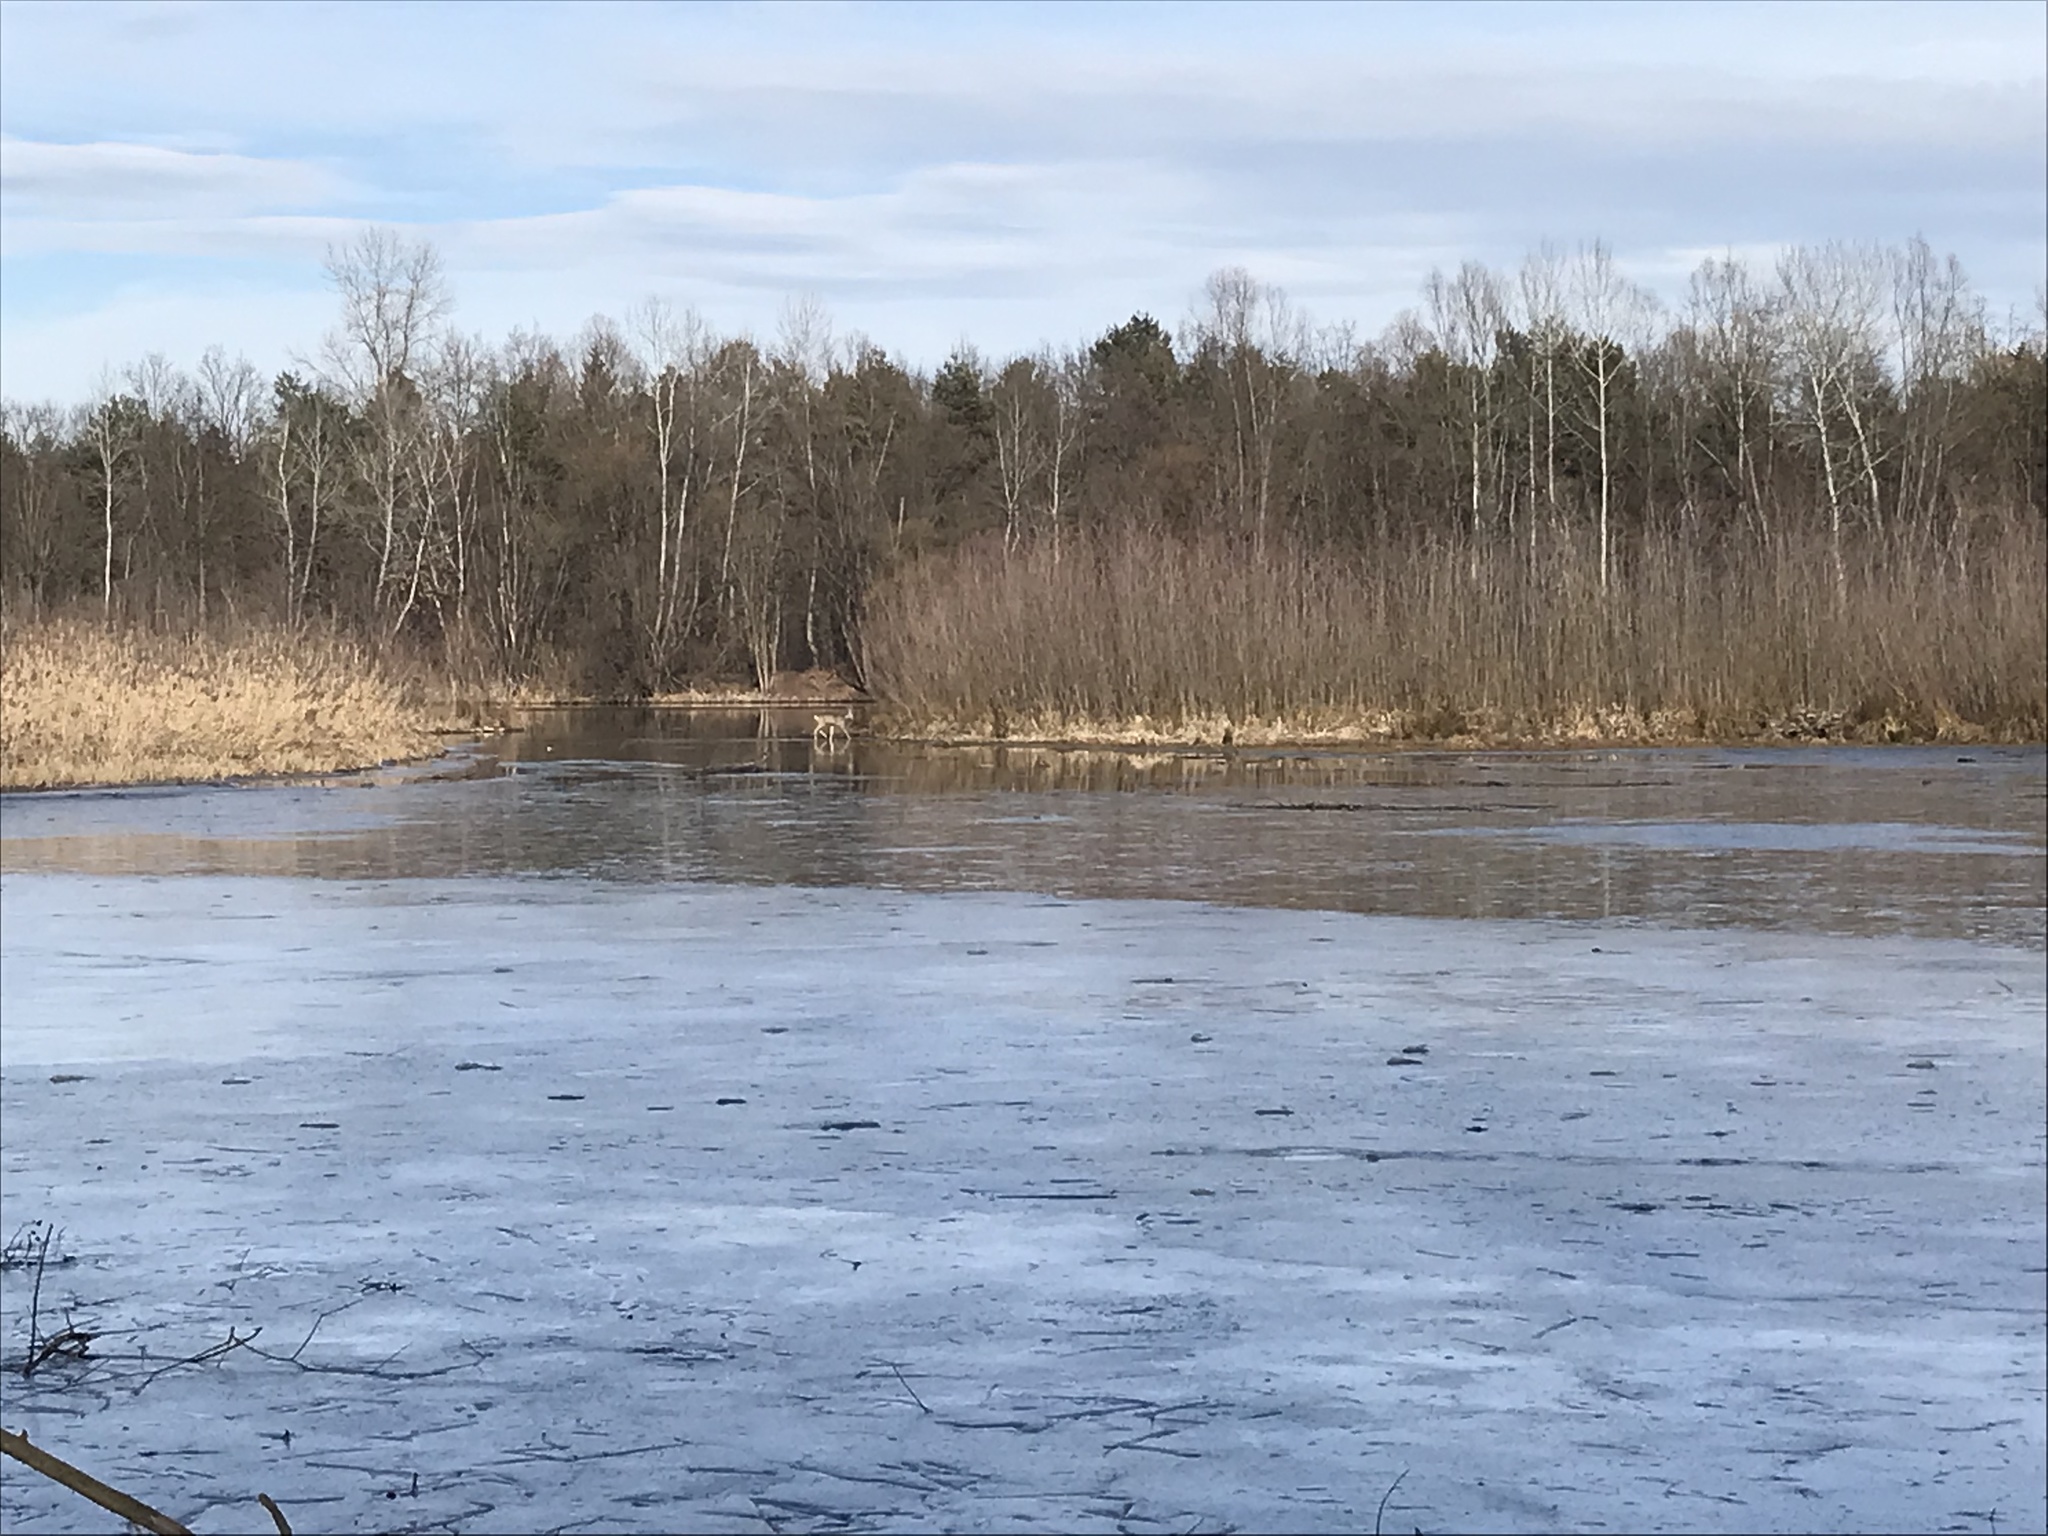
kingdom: Animalia
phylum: Chordata
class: Mammalia
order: Artiodactyla
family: Cervidae
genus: Capreolus
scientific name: Capreolus capreolus
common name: Western roe deer
